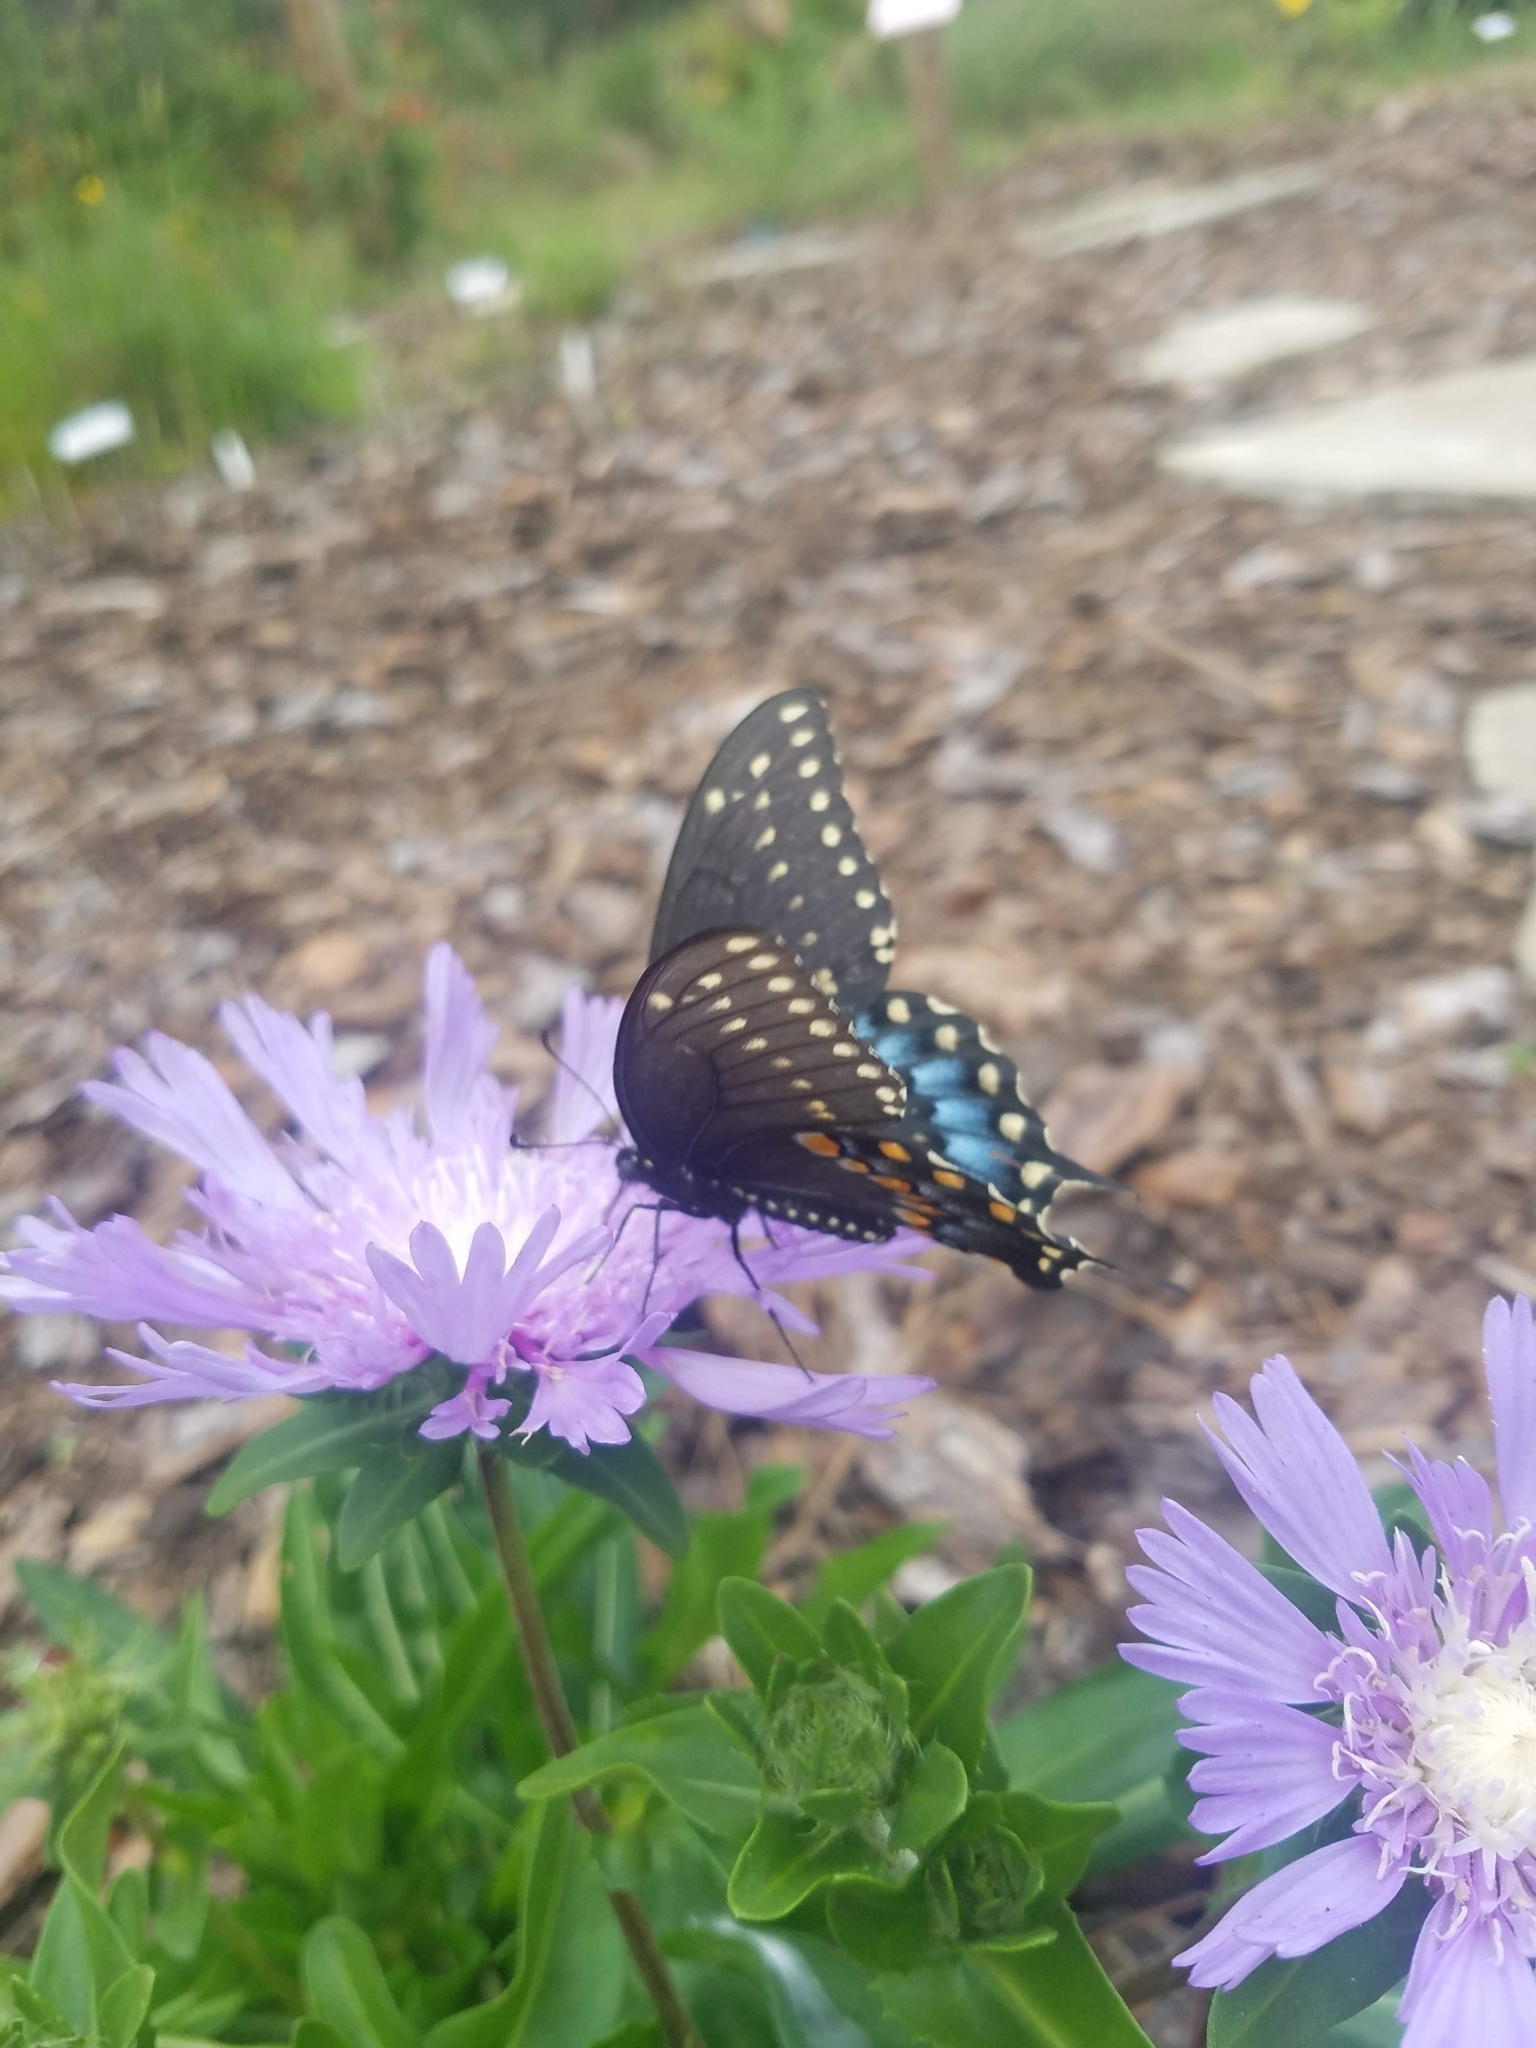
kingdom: Animalia
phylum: Arthropoda
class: Insecta
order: Lepidoptera
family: Papilionidae
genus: Papilio
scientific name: Papilio polyxenes
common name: Black swallowtail
